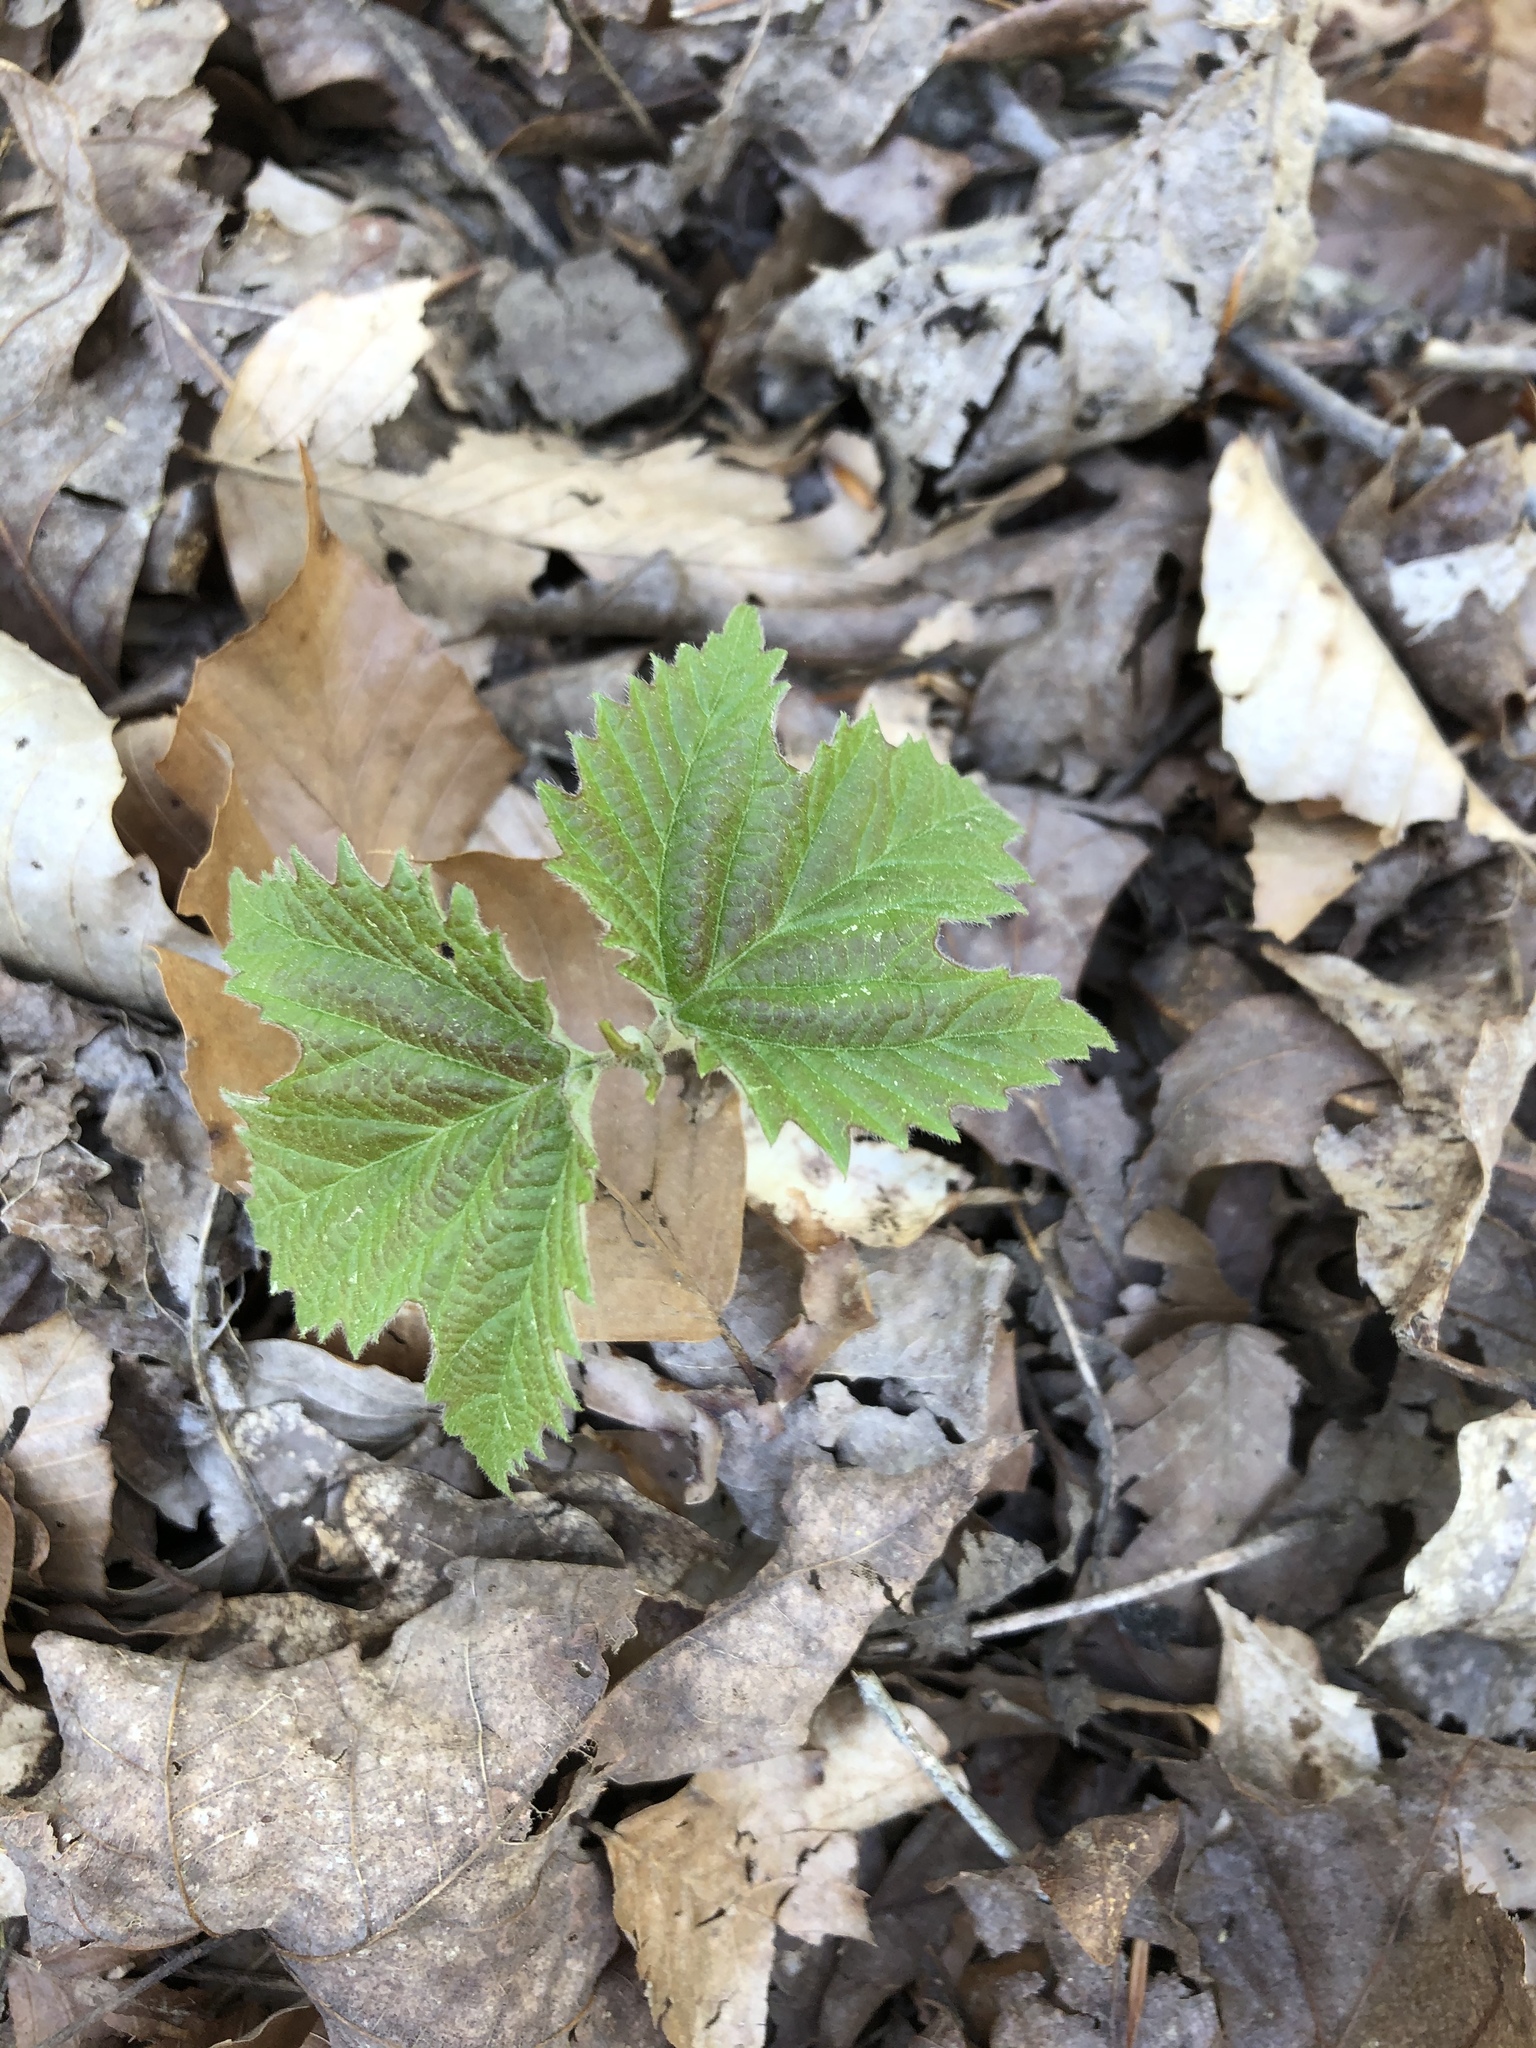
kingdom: Plantae
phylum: Tracheophyta
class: Magnoliopsida
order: Dipsacales
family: Viburnaceae
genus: Viburnum
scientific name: Viburnum acerifolium
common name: Dockmackie
